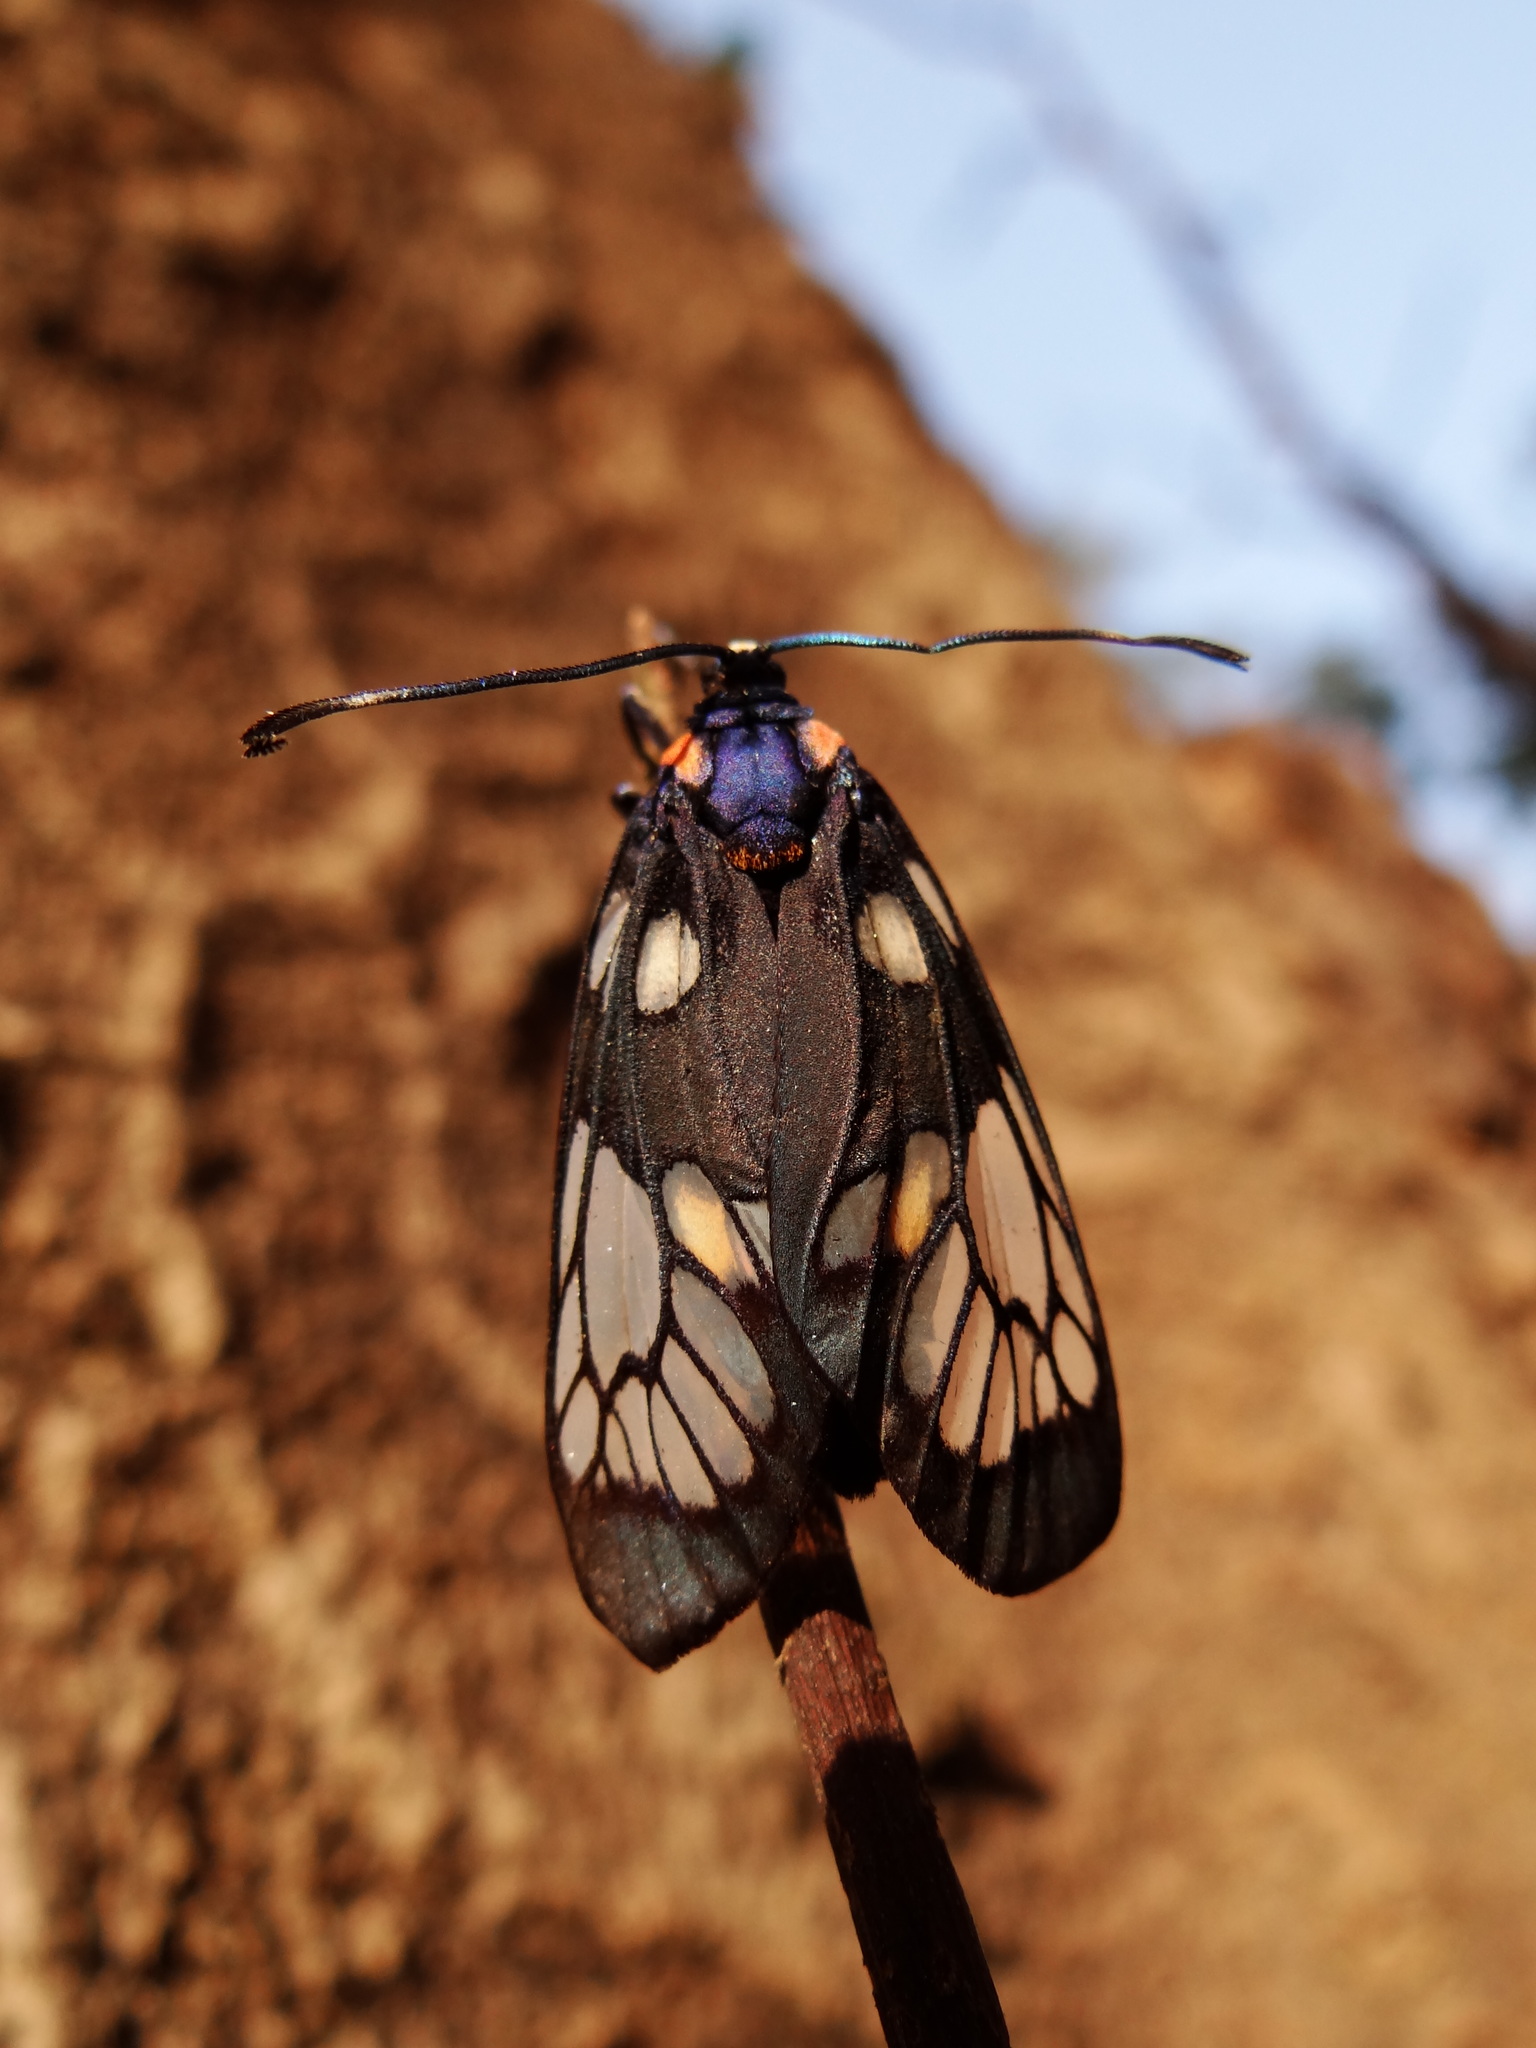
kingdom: Animalia
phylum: Arthropoda
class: Insecta
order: Lepidoptera
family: Zygaenidae
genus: Trypanophora
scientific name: Trypanophora semihyalina
